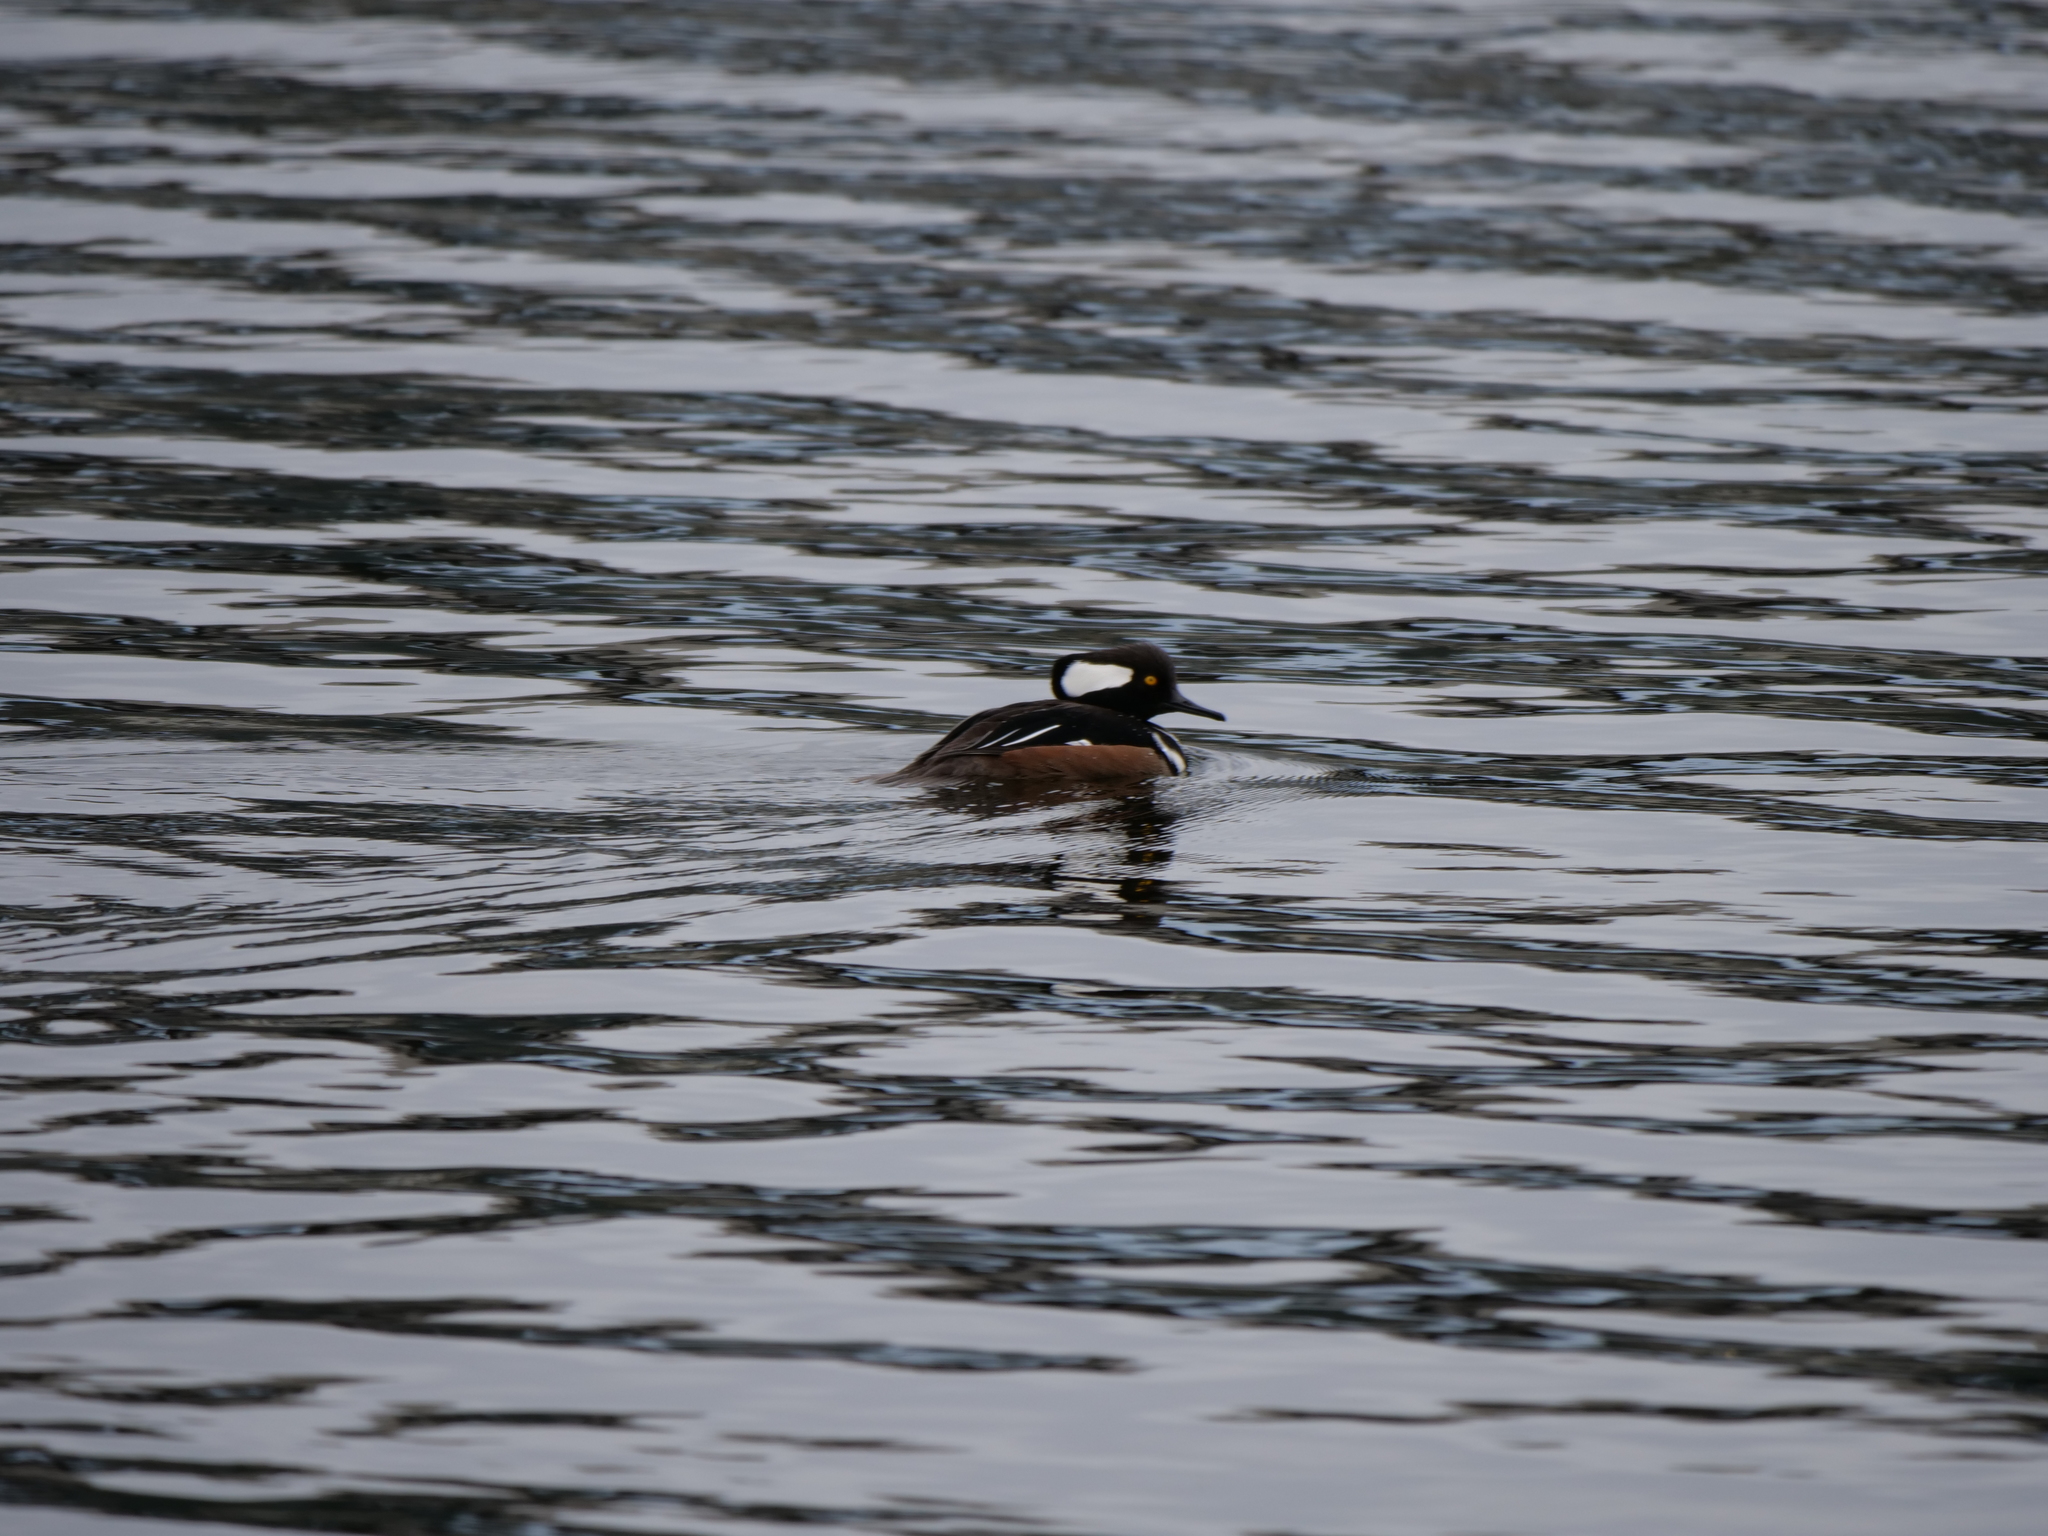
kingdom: Animalia
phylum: Chordata
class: Aves
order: Anseriformes
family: Anatidae
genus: Lophodytes
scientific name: Lophodytes cucullatus
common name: Hooded merganser
